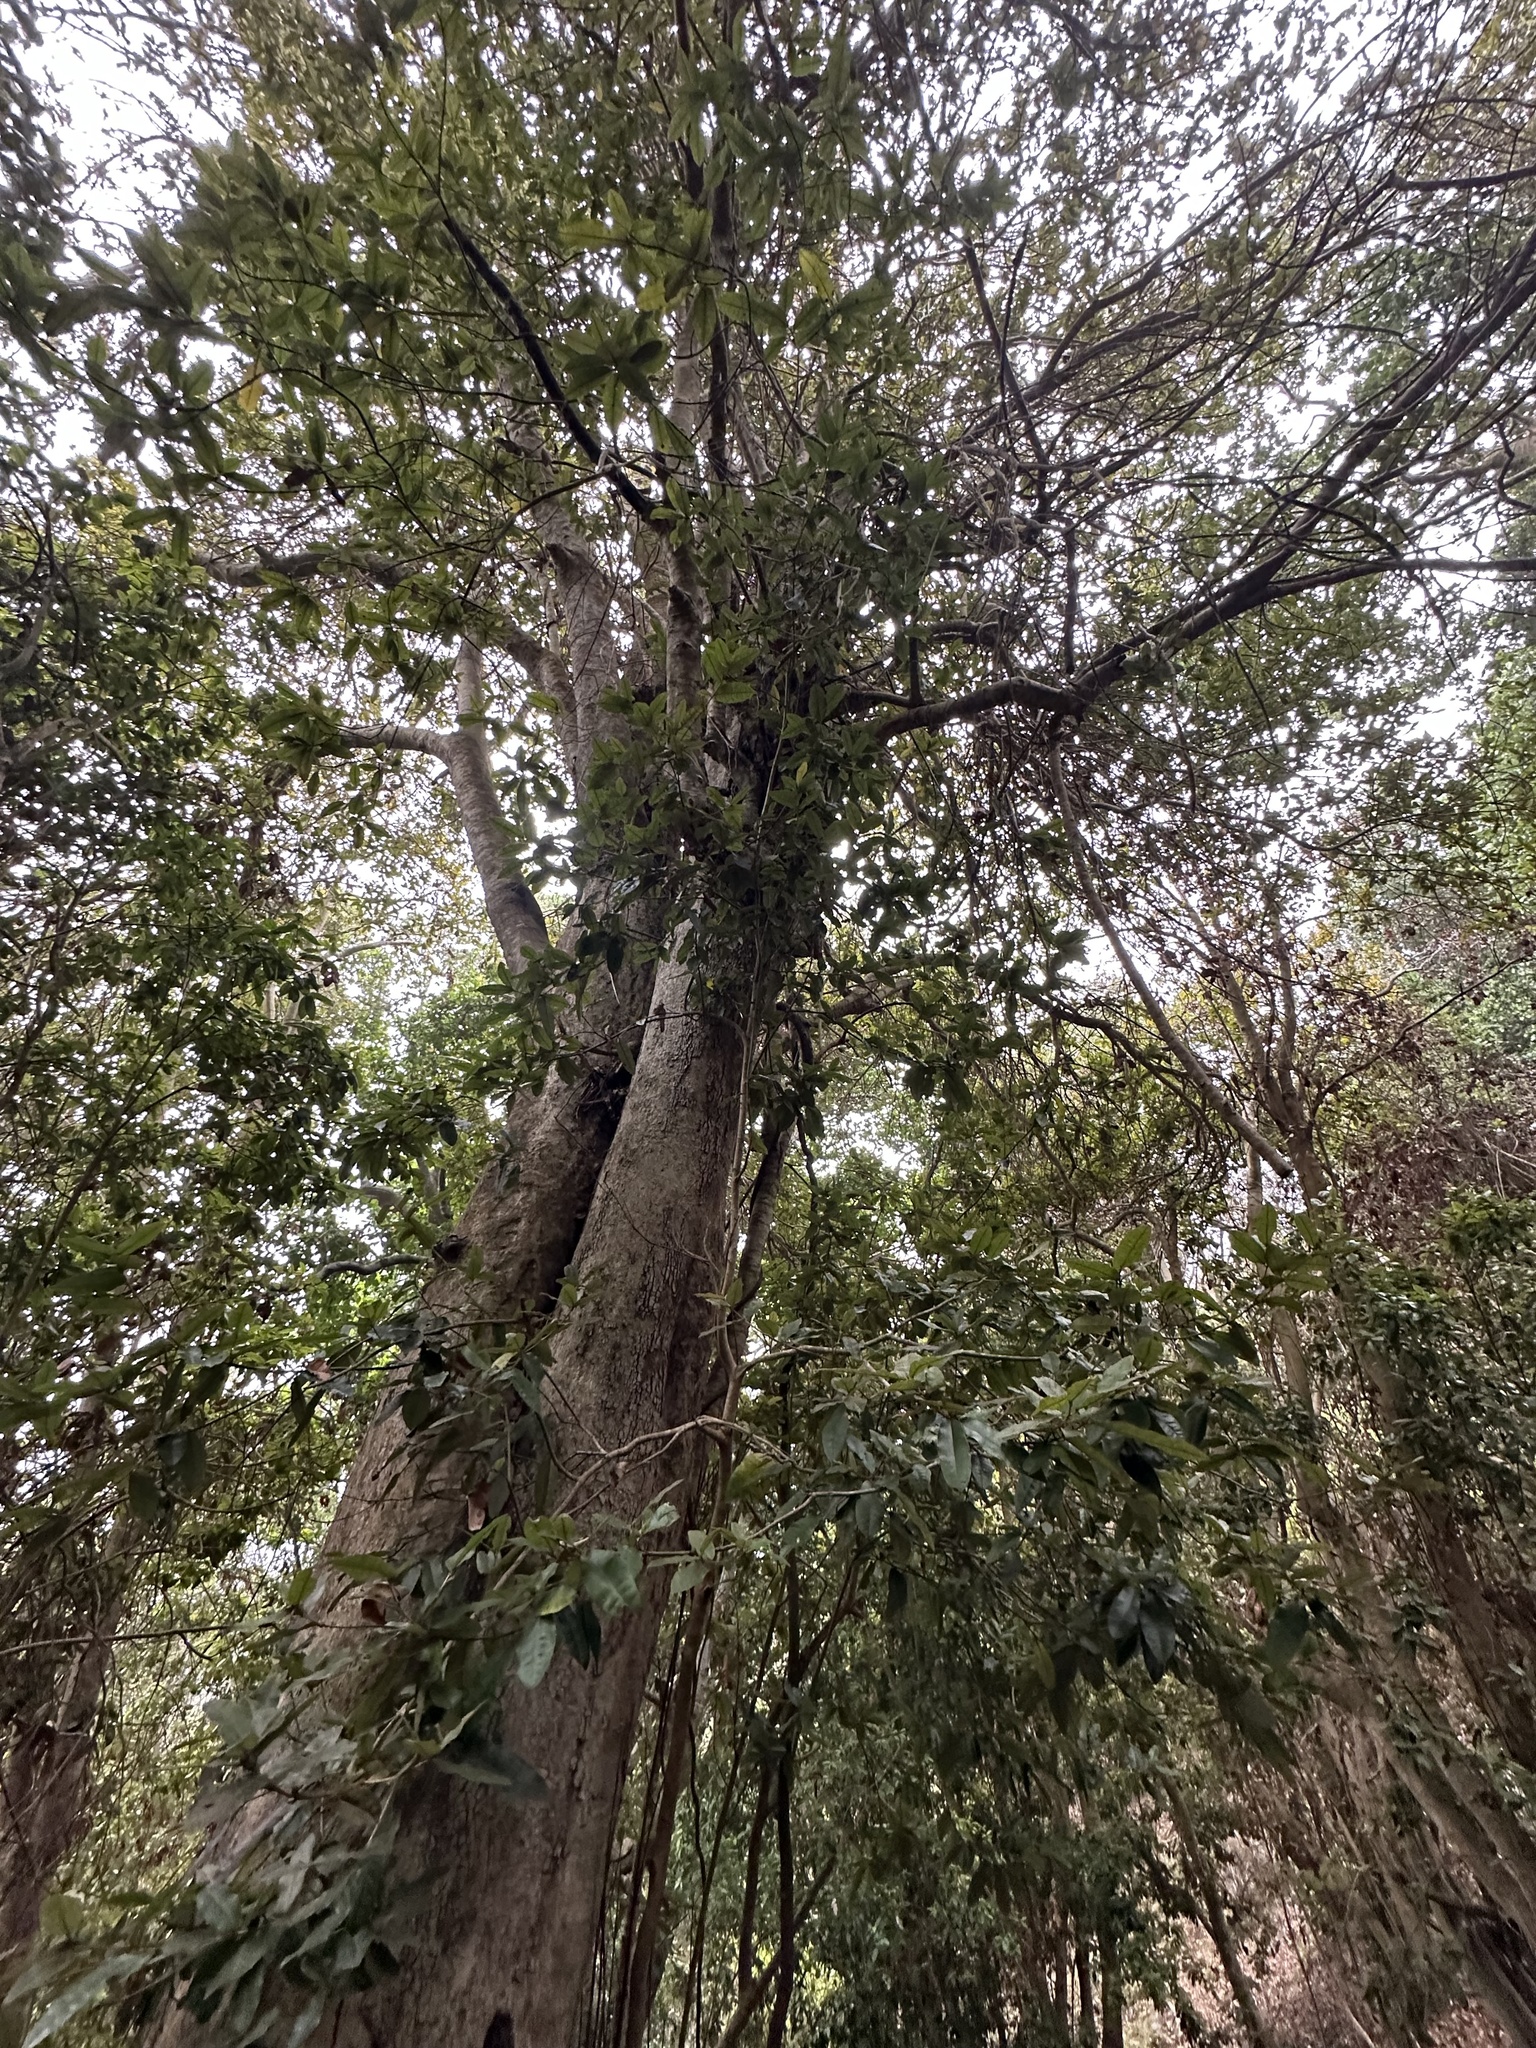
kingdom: Plantae
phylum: Tracheophyta
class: Magnoliopsida
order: Berberidopsidales
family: Aextoxicaceae
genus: Aextoxicon
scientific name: Aextoxicon punctatum
